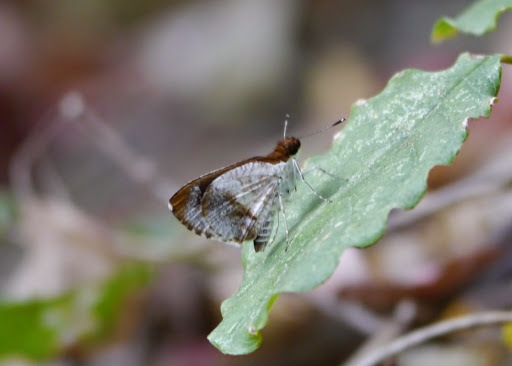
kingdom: Animalia
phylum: Arthropoda
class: Insecta
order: Lepidoptera
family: Hesperiidae
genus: Acleros
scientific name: Acleros mackenii
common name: Shade dart
